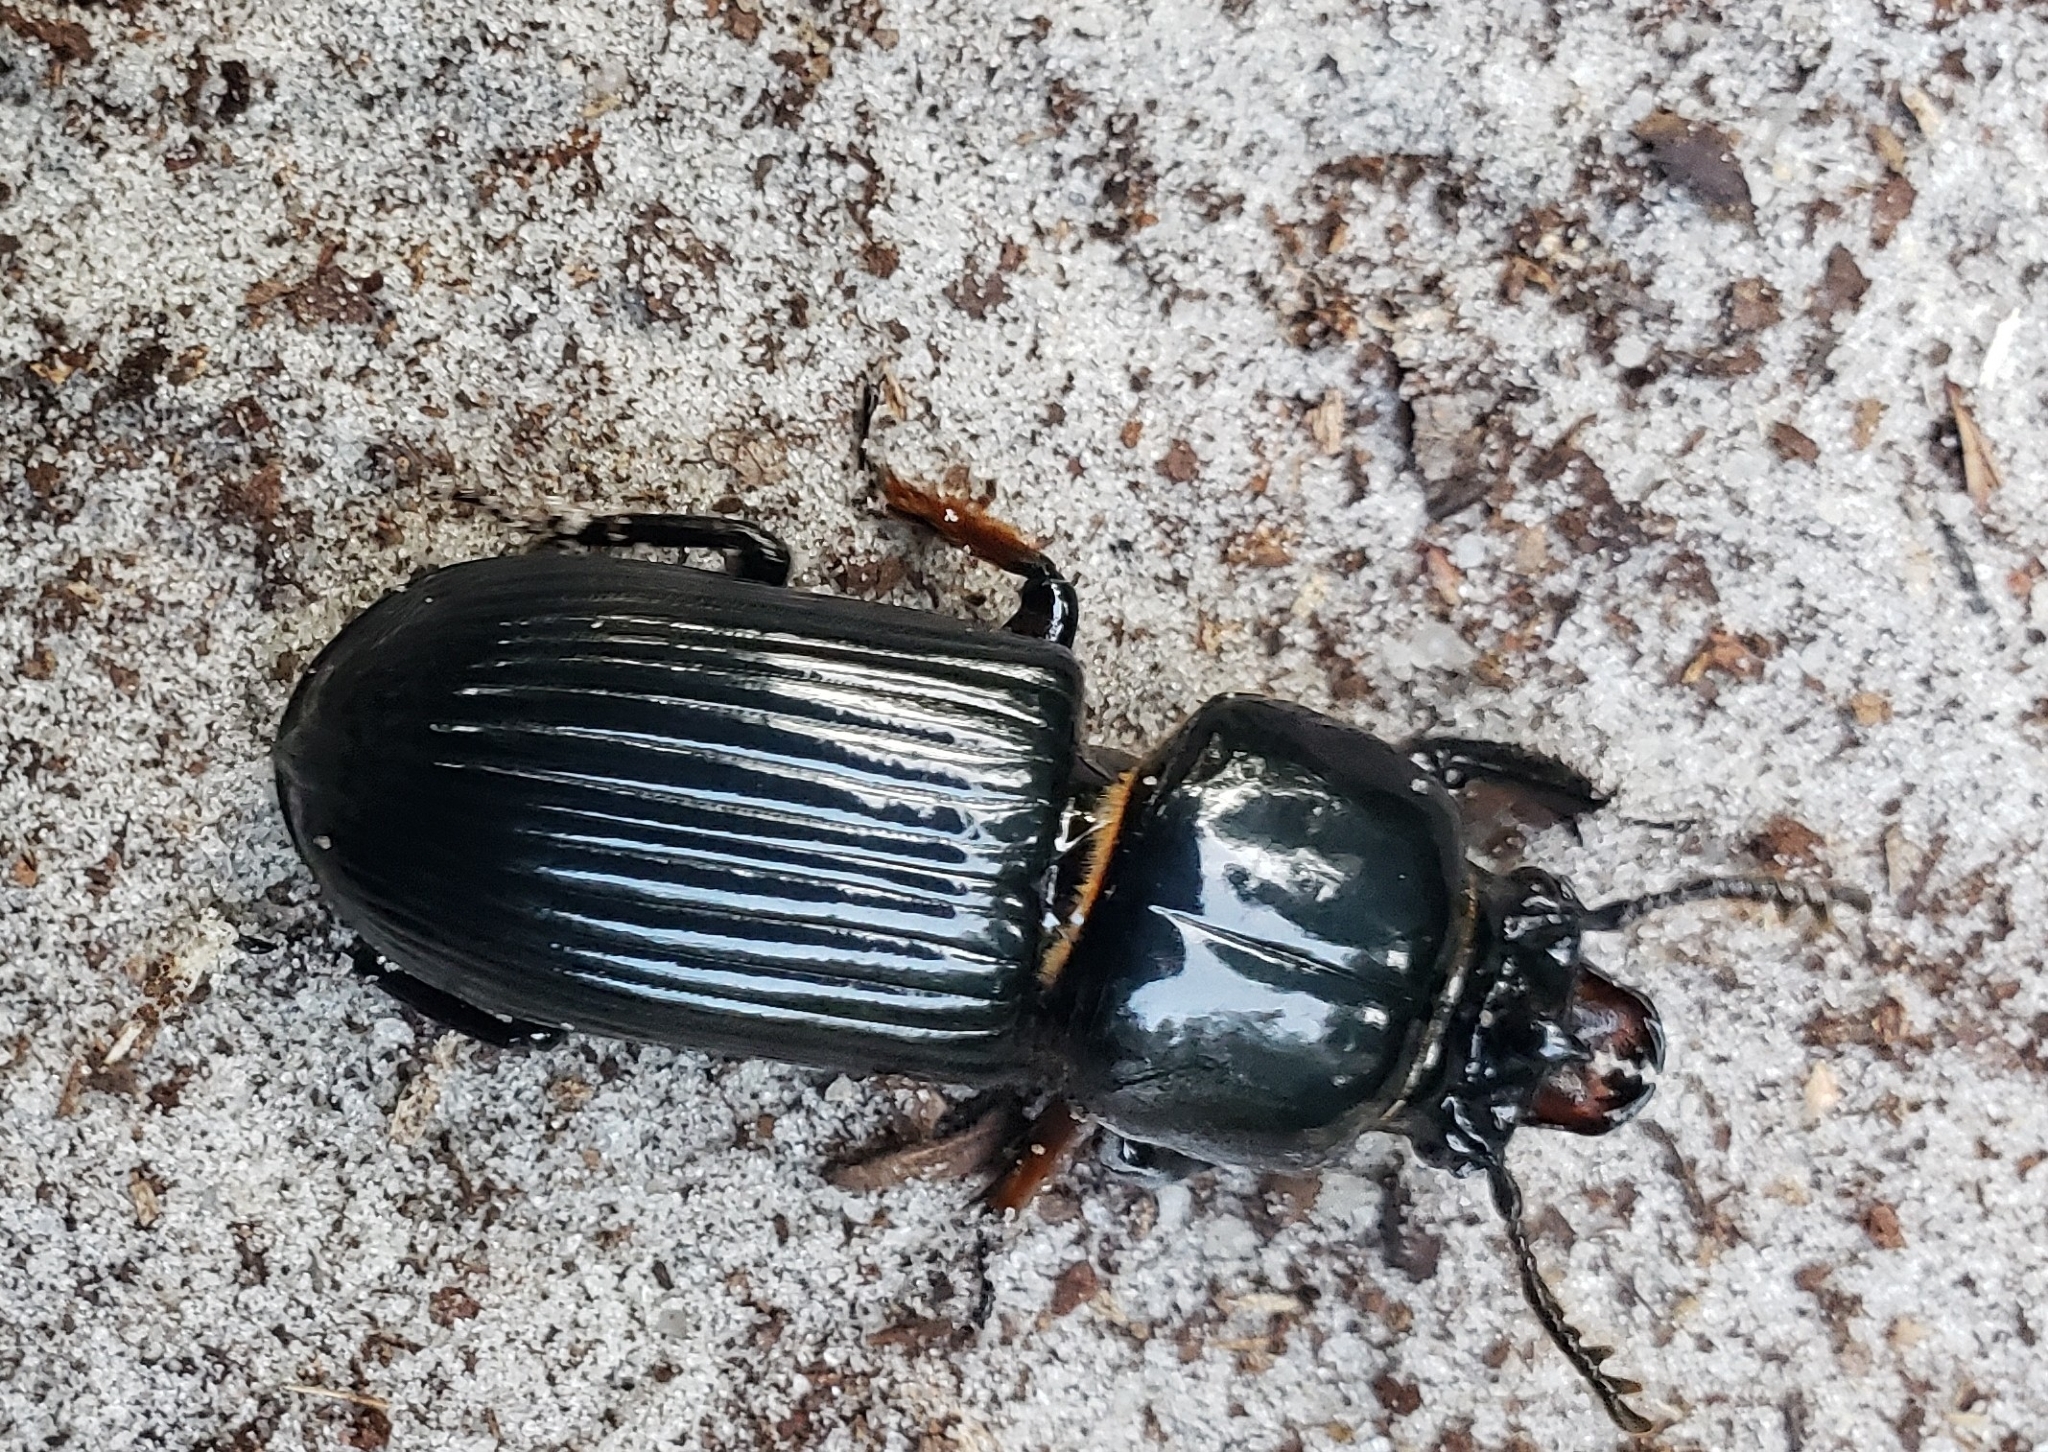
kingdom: Animalia
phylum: Arthropoda
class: Insecta
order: Coleoptera
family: Passalidae
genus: Odontotaenius
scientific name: Odontotaenius disjunctus
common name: Patent leather beetle
